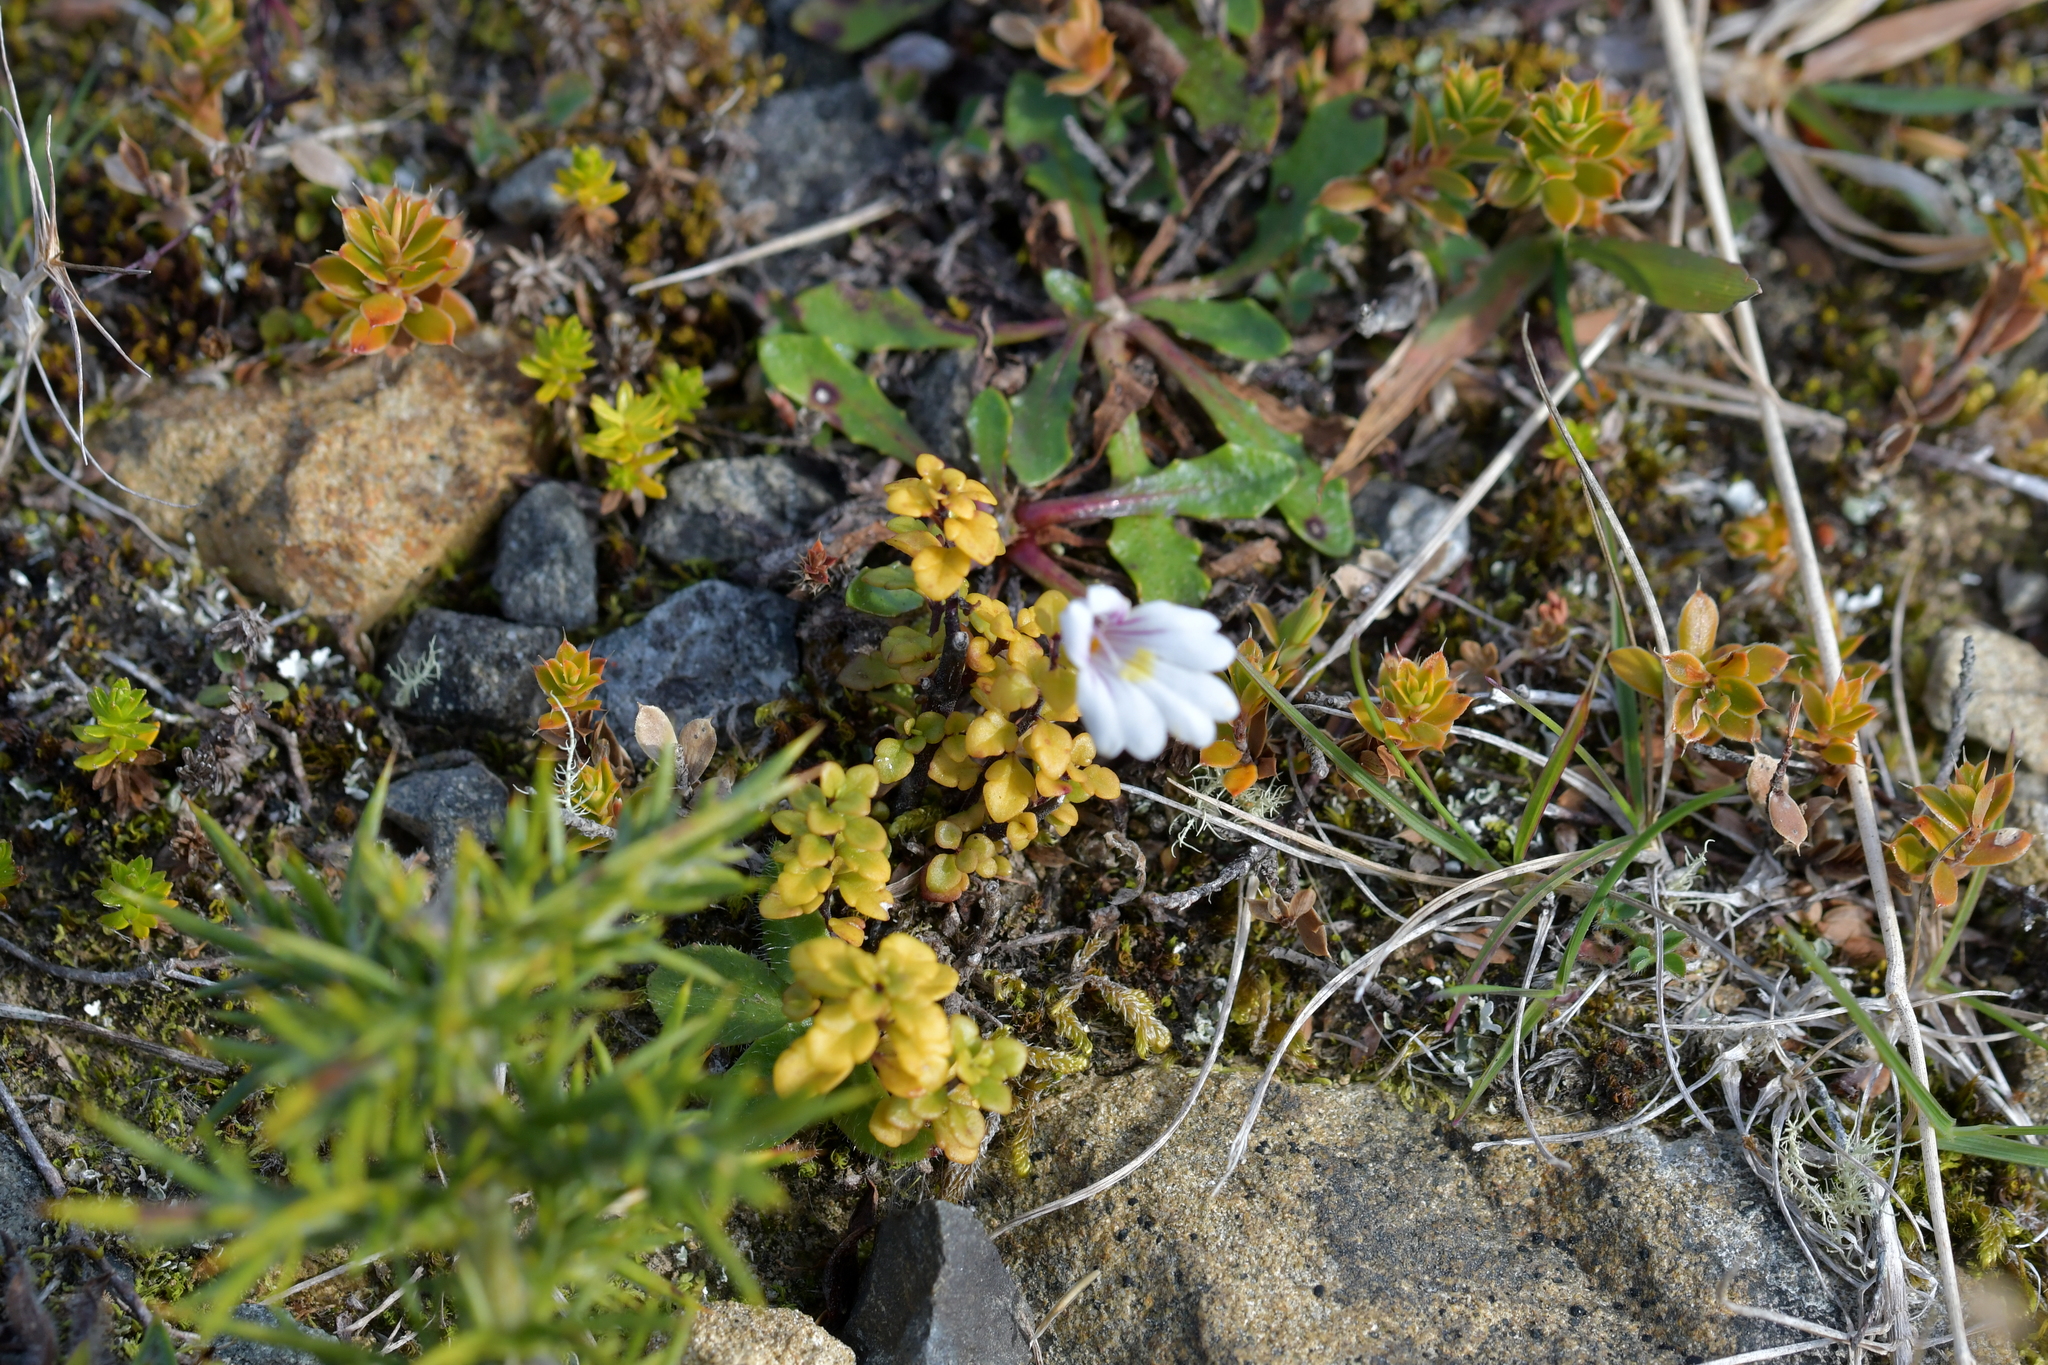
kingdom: Plantae
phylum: Tracheophyta
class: Magnoliopsida
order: Lamiales
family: Orobanchaceae
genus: Euphrasia
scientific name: Euphrasia cuneata
